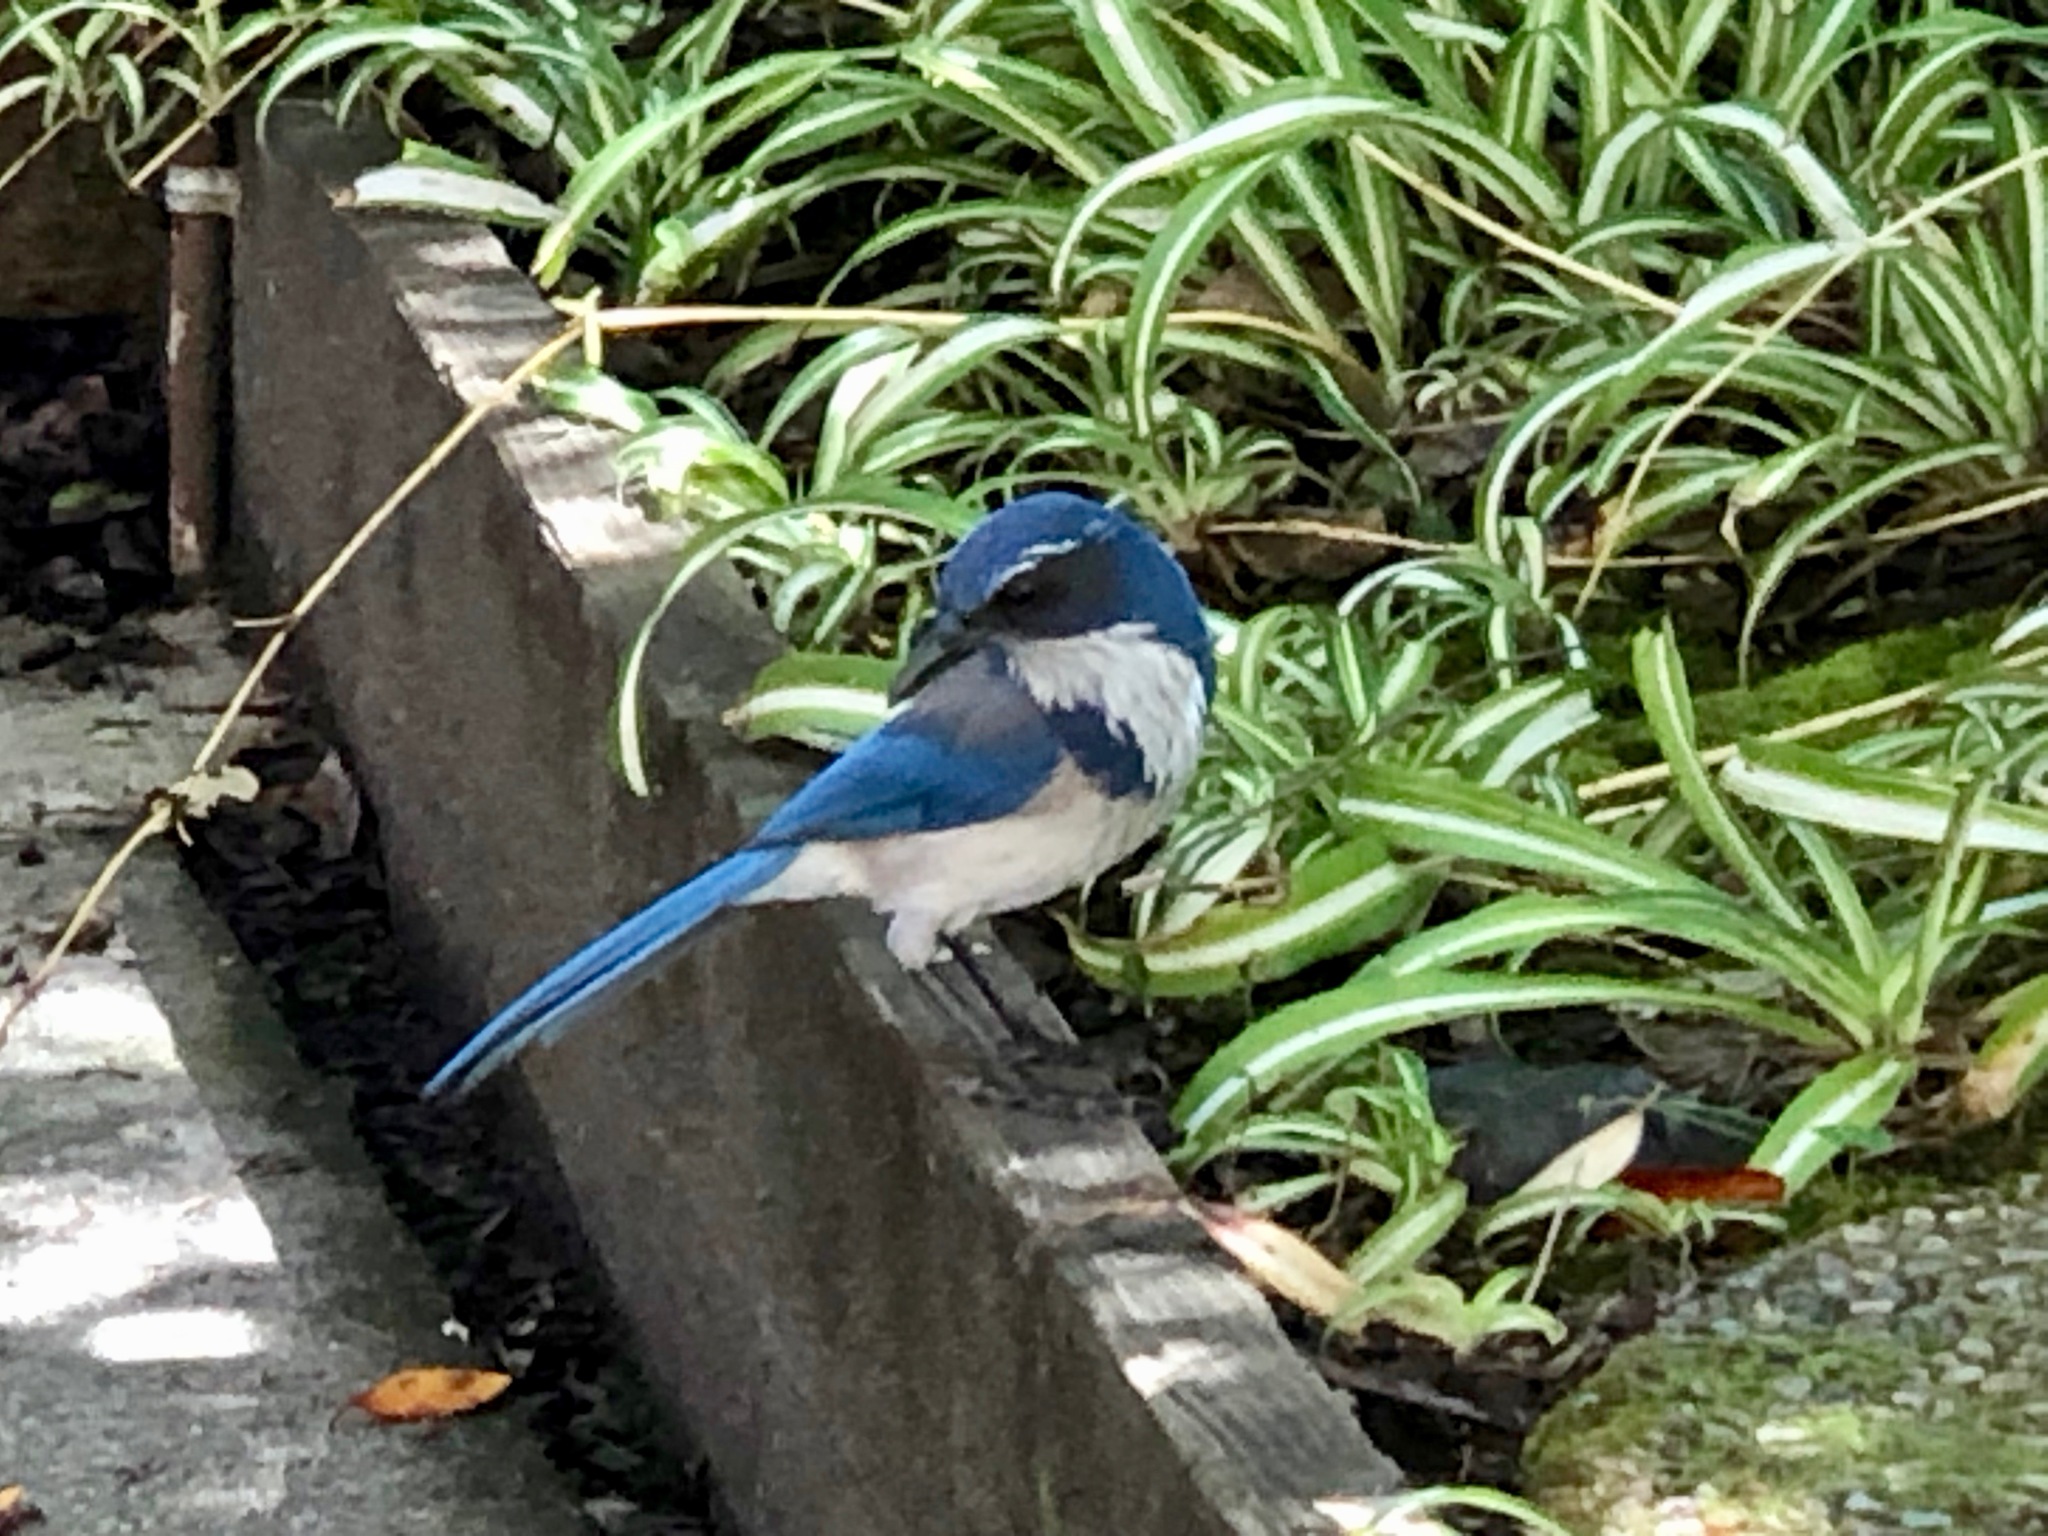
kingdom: Animalia
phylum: Chordata
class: Aves
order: Passeriformes
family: Corvidae
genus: Aphelocoma
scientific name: Aphelocoma californica
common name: California scrub-jay
